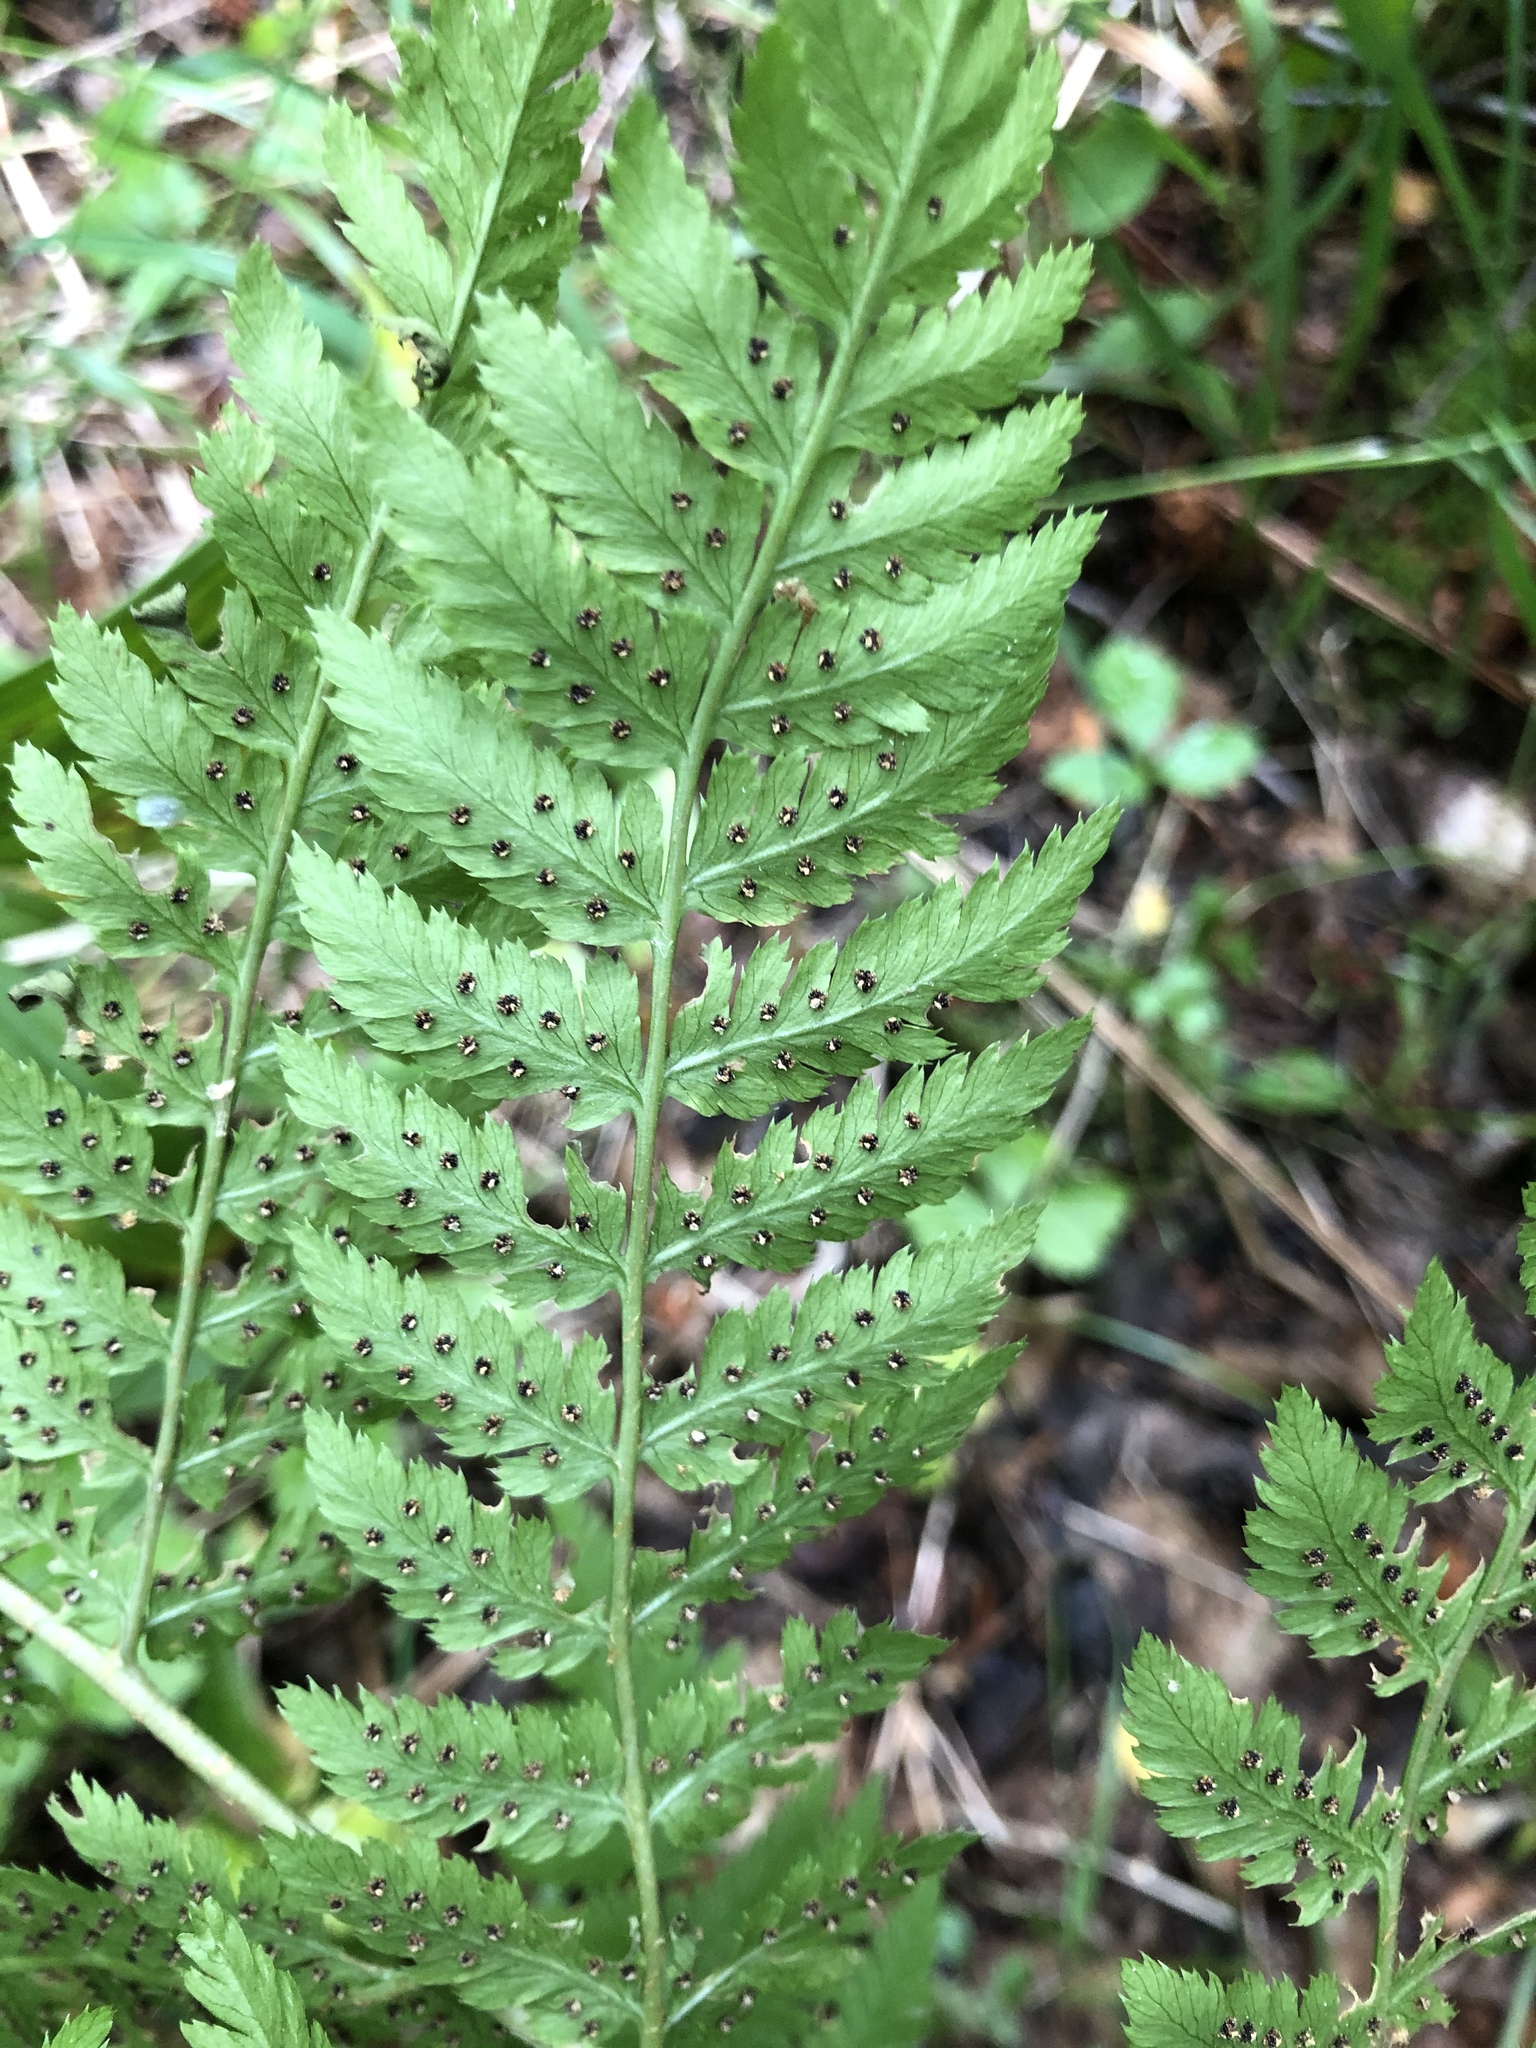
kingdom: Plantae
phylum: Tracheophyta
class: Polypodiopsida
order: Polypodiales
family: Dryopteridaceae
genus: Dryopteris
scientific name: Dryopteris expansa
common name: Northern buckler fern
